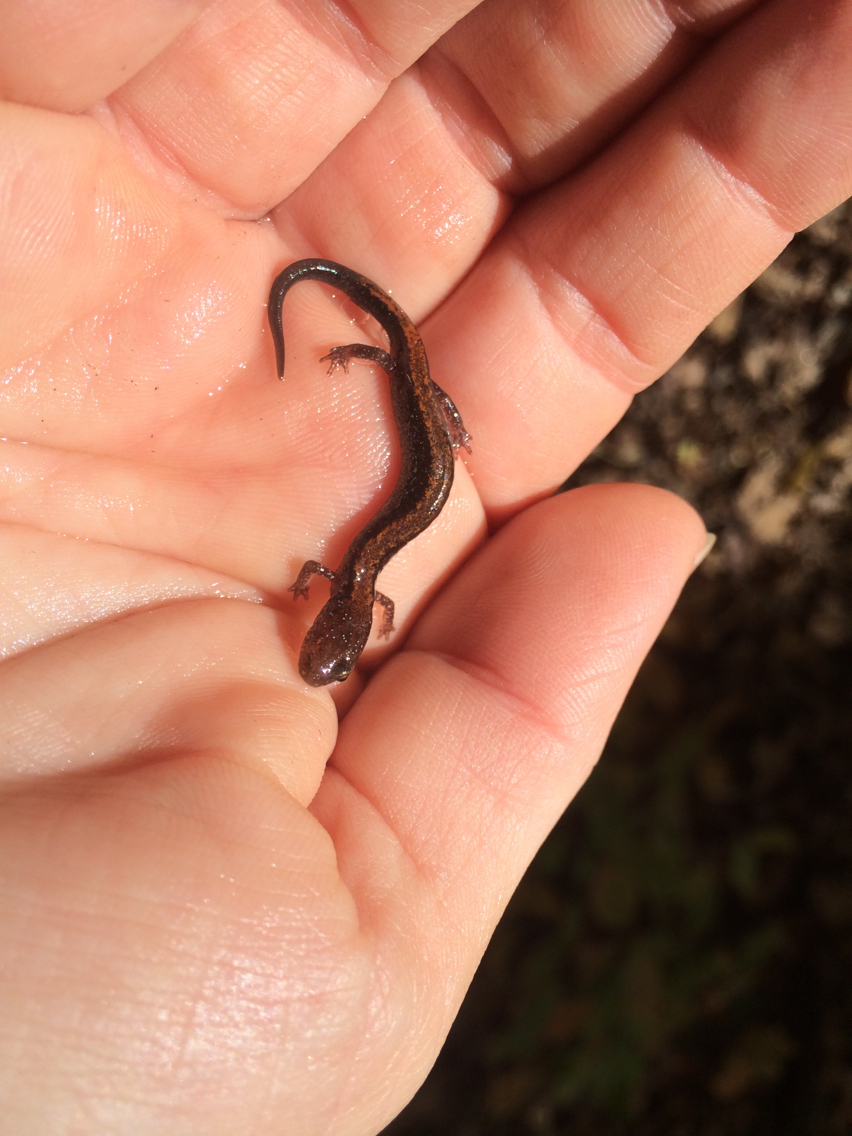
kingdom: Animalia
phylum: Chordata
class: Amphibia
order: Caudata
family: Plethodontidae
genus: Plethodon
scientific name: Plethodon cinereus
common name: Redback salamander
